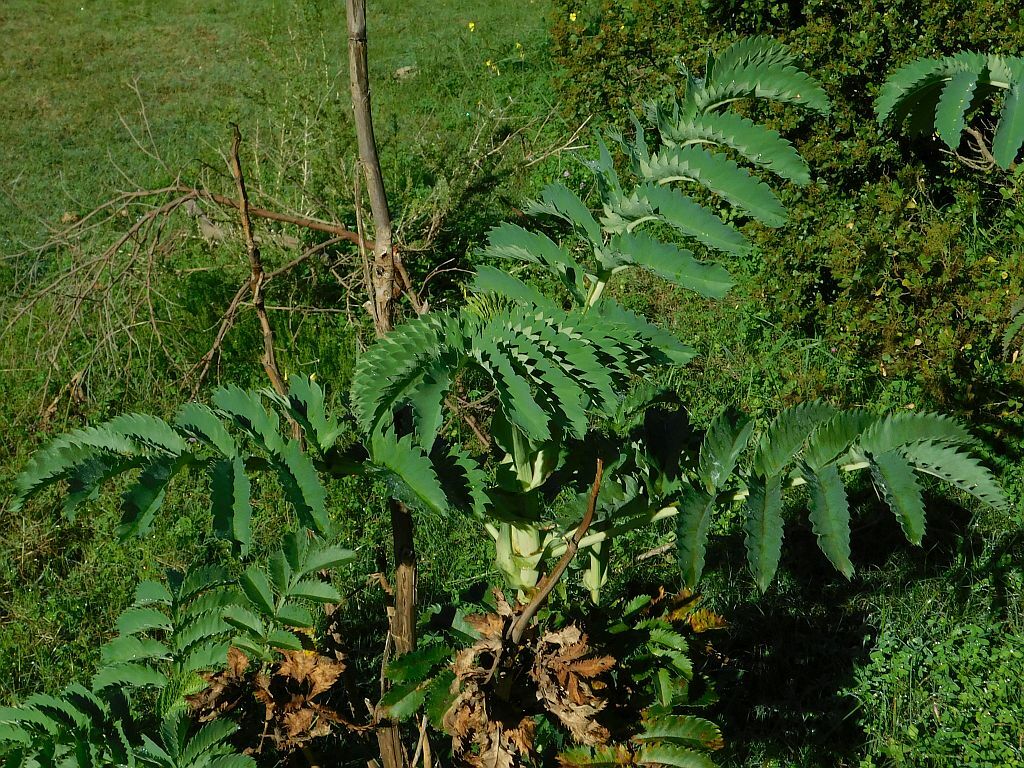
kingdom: Plantae
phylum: Tracheophyta
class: Magnoliopsida
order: Geraniales
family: Melianthaceae
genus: Melianthus
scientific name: Melianthus major
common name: Honey-flower
